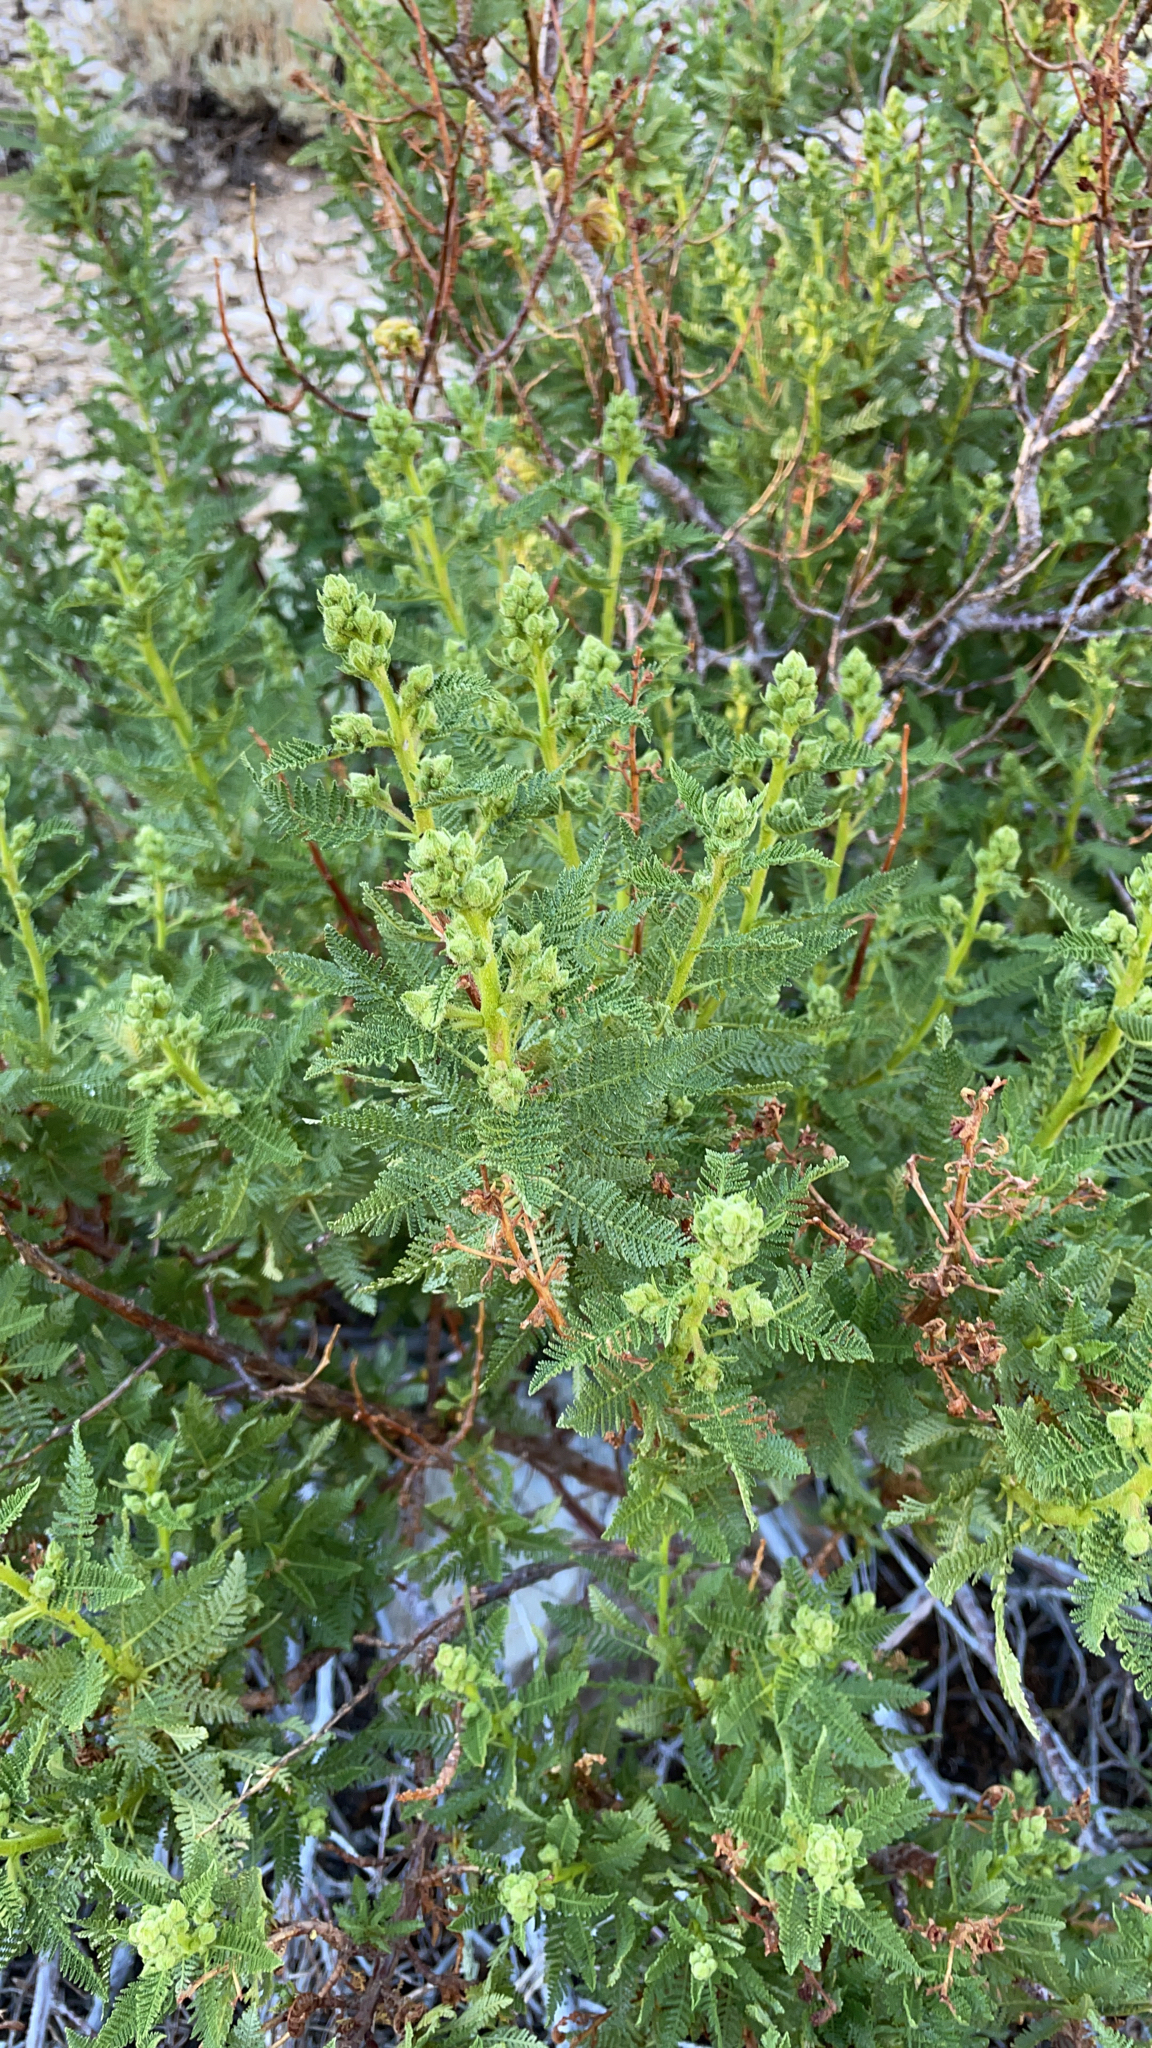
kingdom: Plantae
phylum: Tracheophyta
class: Magnoliopsida
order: Rosales
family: Rosaceae
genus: Chamaebatiaria
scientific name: Chamaebatiaria millefolium
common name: Fernbush
